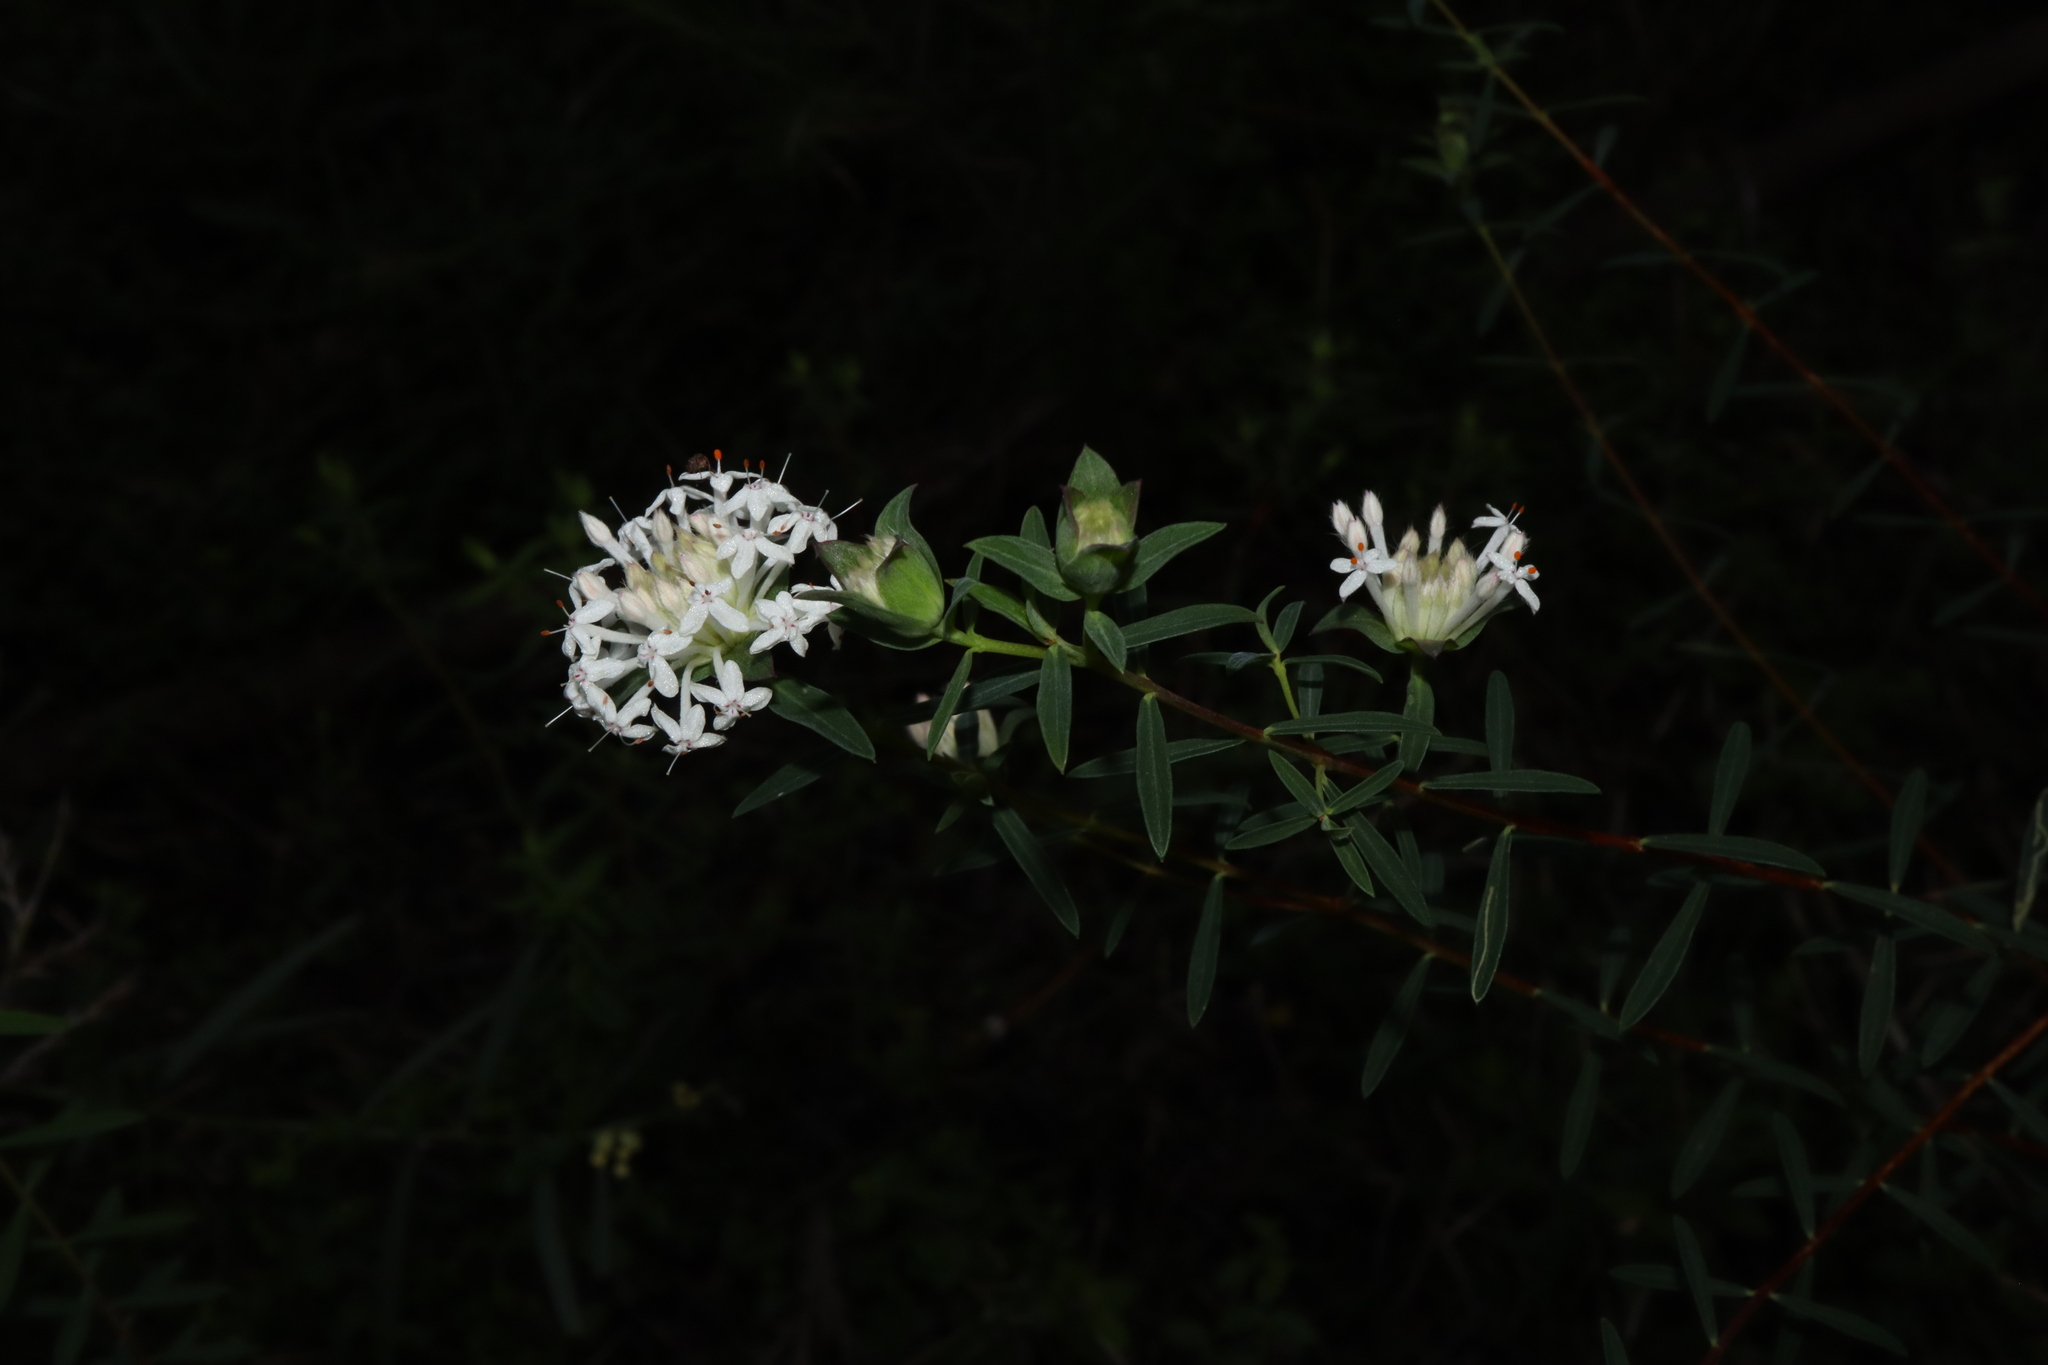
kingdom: Plantae
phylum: Tracheophyta
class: Magnoliopsida
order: Malvales
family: Thymelaeaceae
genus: Pimelea
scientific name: Pimelea linifolia
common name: Queen-of-the-bush
